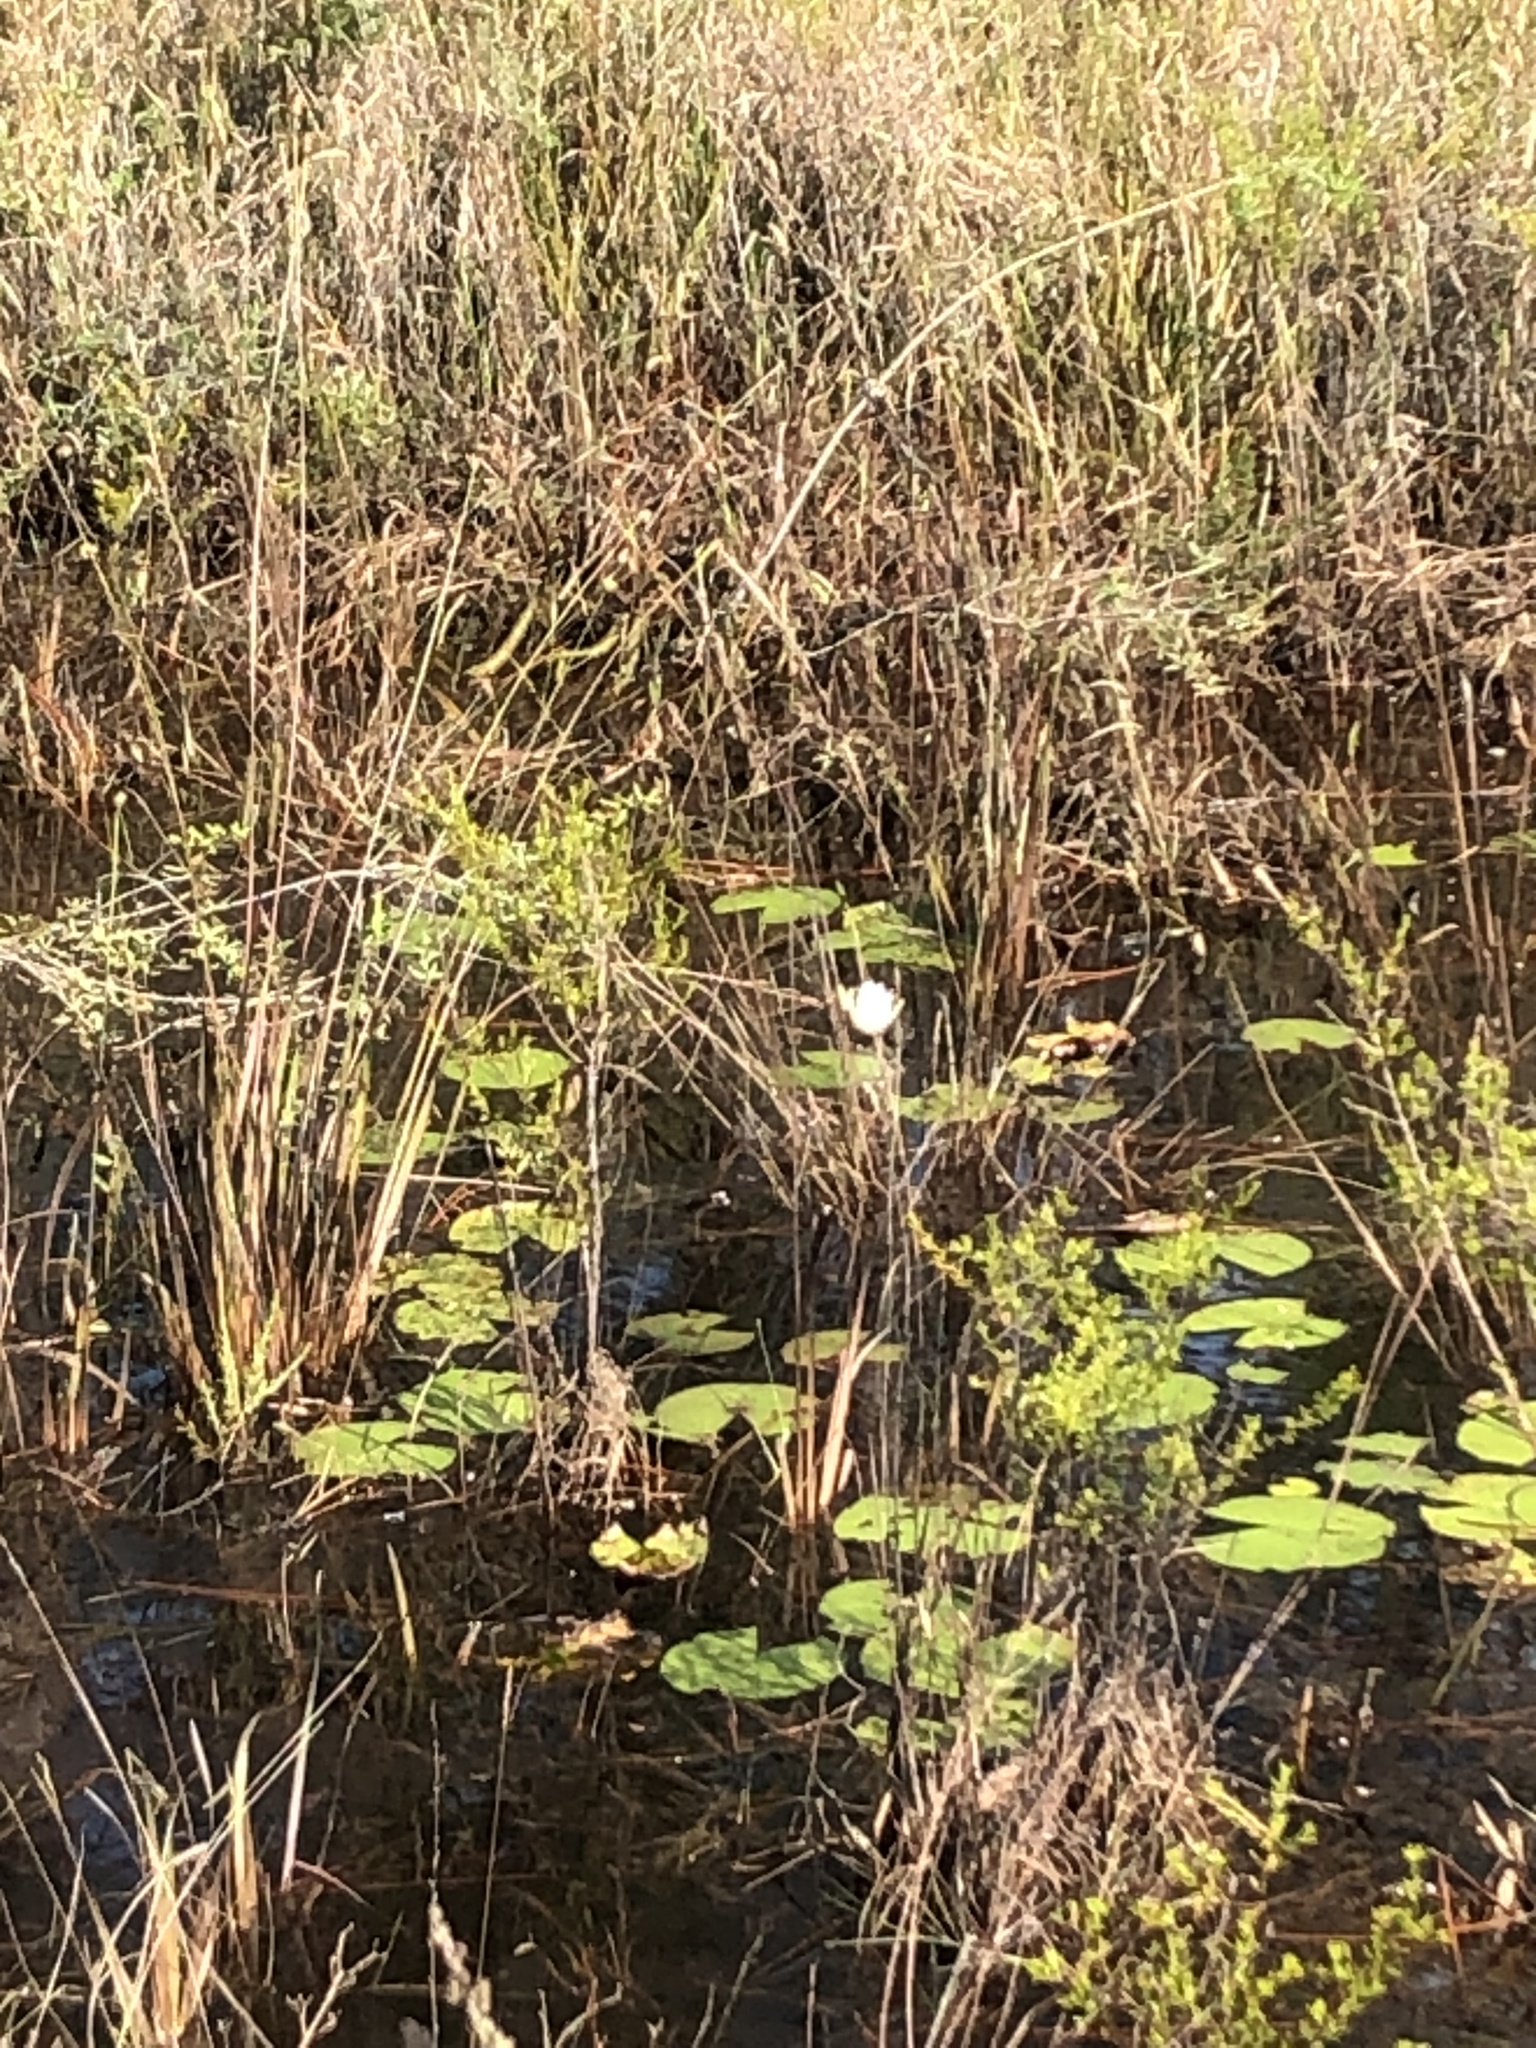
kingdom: Plantae
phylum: Tracheophyta
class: Magnoliopsida
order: Nymphaeales
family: Nymphaeaceae
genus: Nymphaea
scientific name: Nymphaea odorata
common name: Fragrant water-lily
